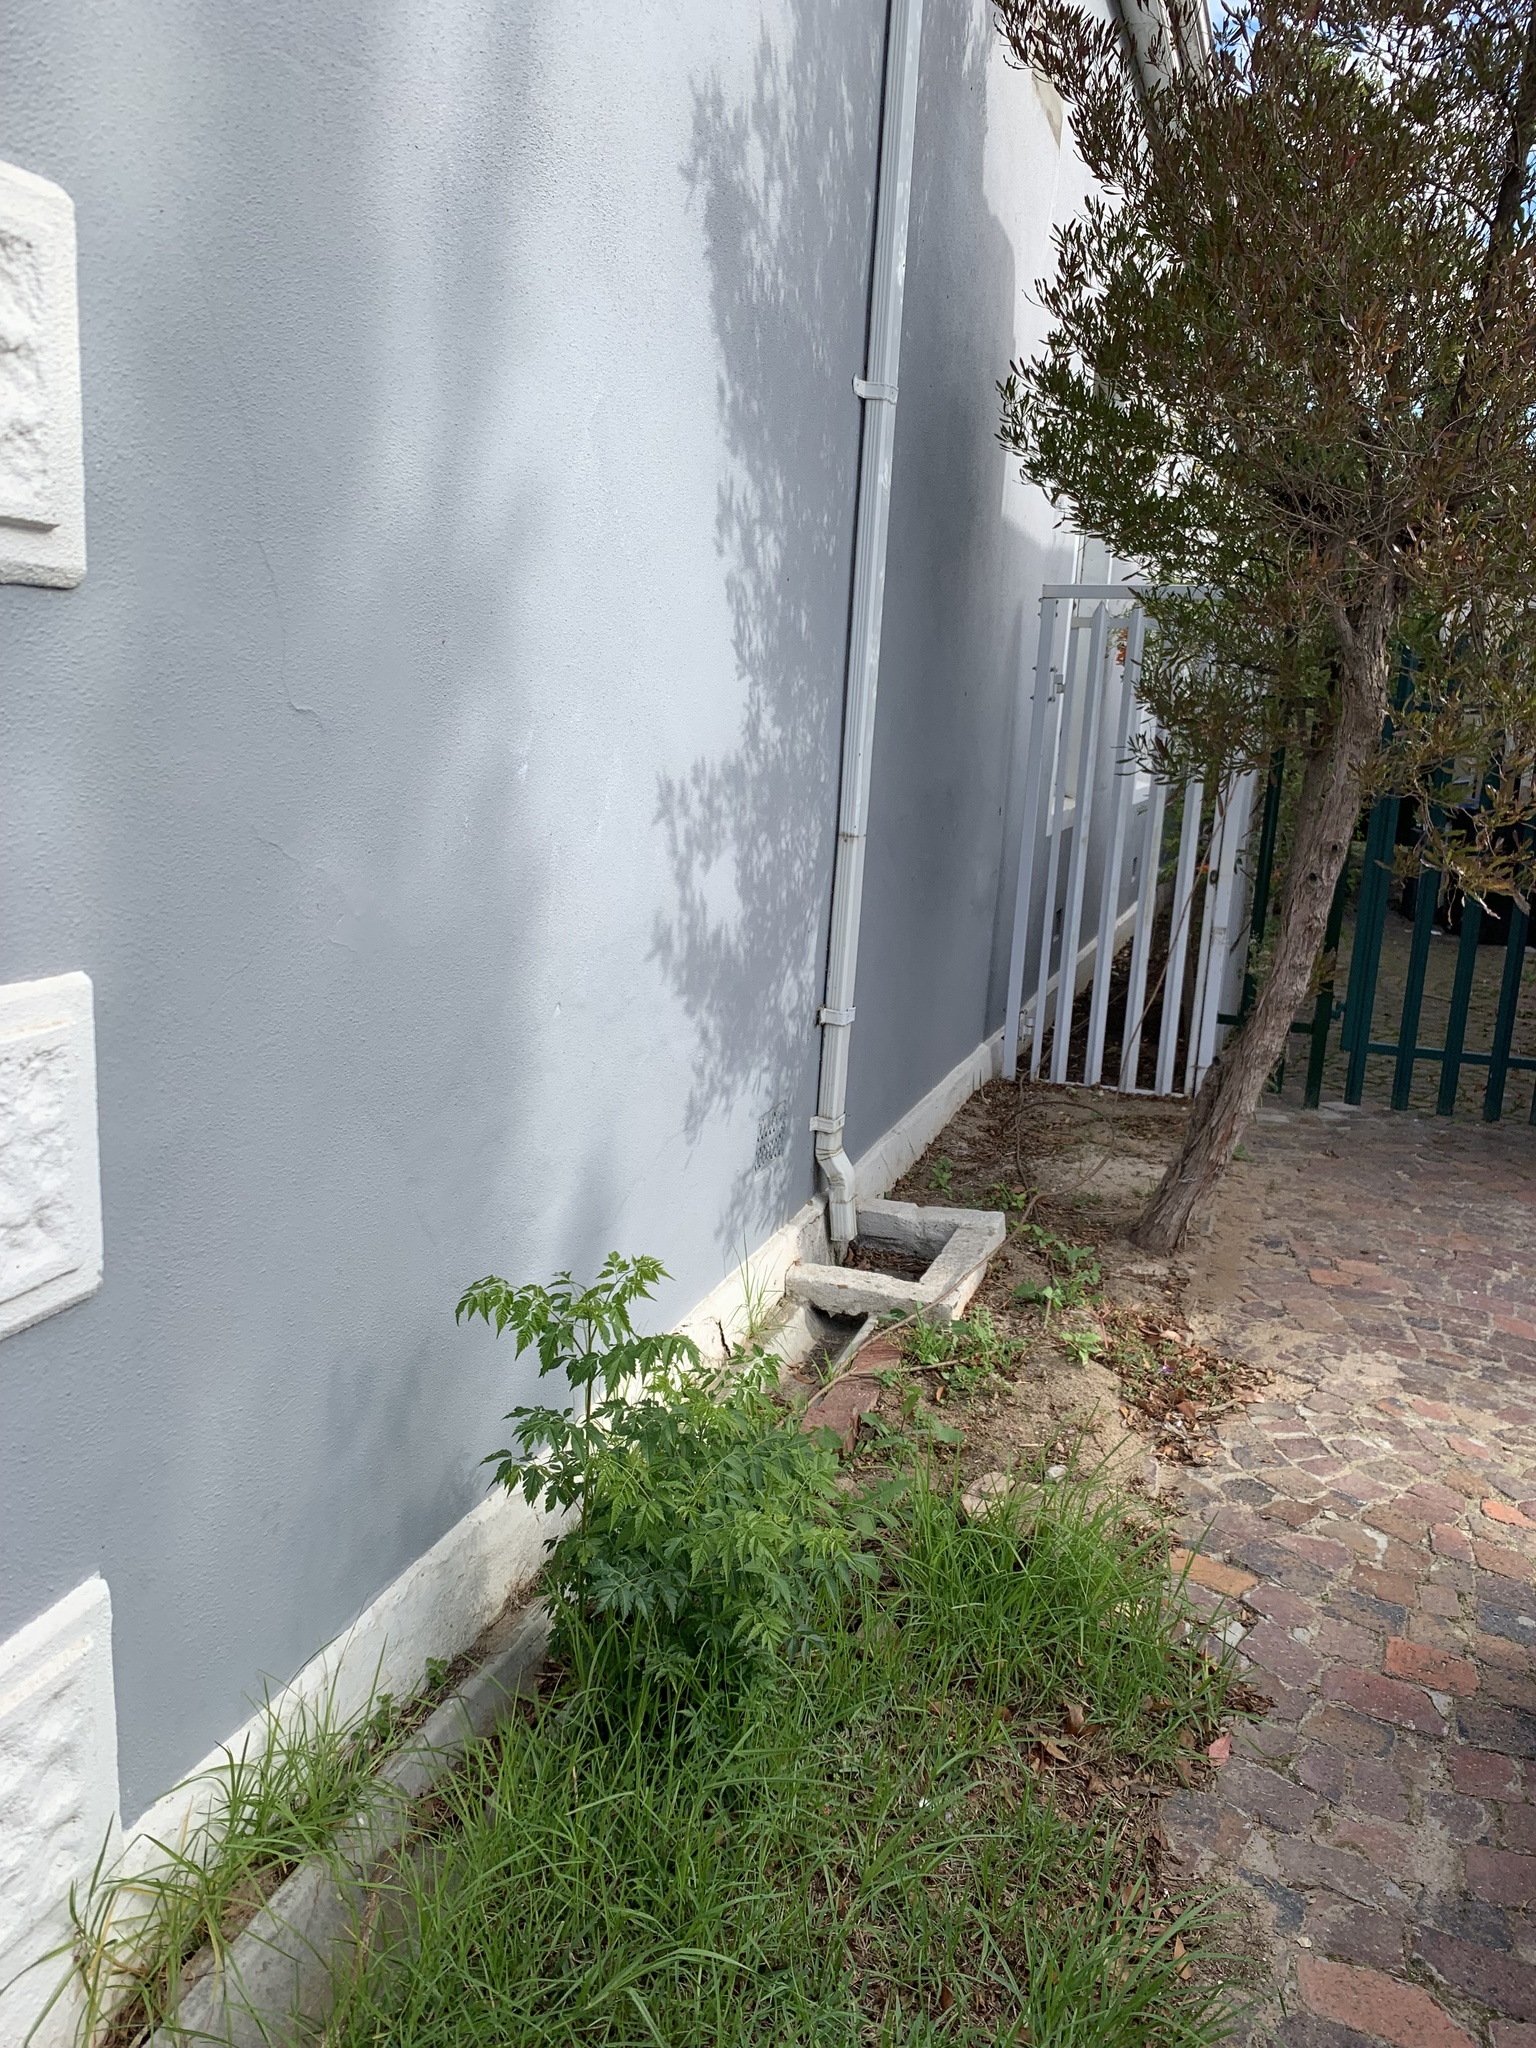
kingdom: Plantae
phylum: Tracheophyta
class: Magnoliopsida
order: Sapindales
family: Meliaceae
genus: Melia
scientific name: Melia azedarach
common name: Chinaberrytree
